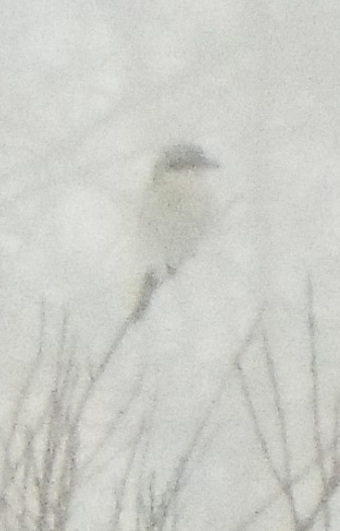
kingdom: Animalia
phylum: Chordata
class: Aves
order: Passeriformes
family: Laniidae
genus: Lanius
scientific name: Lanius excubitor
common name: Great grey shrike
